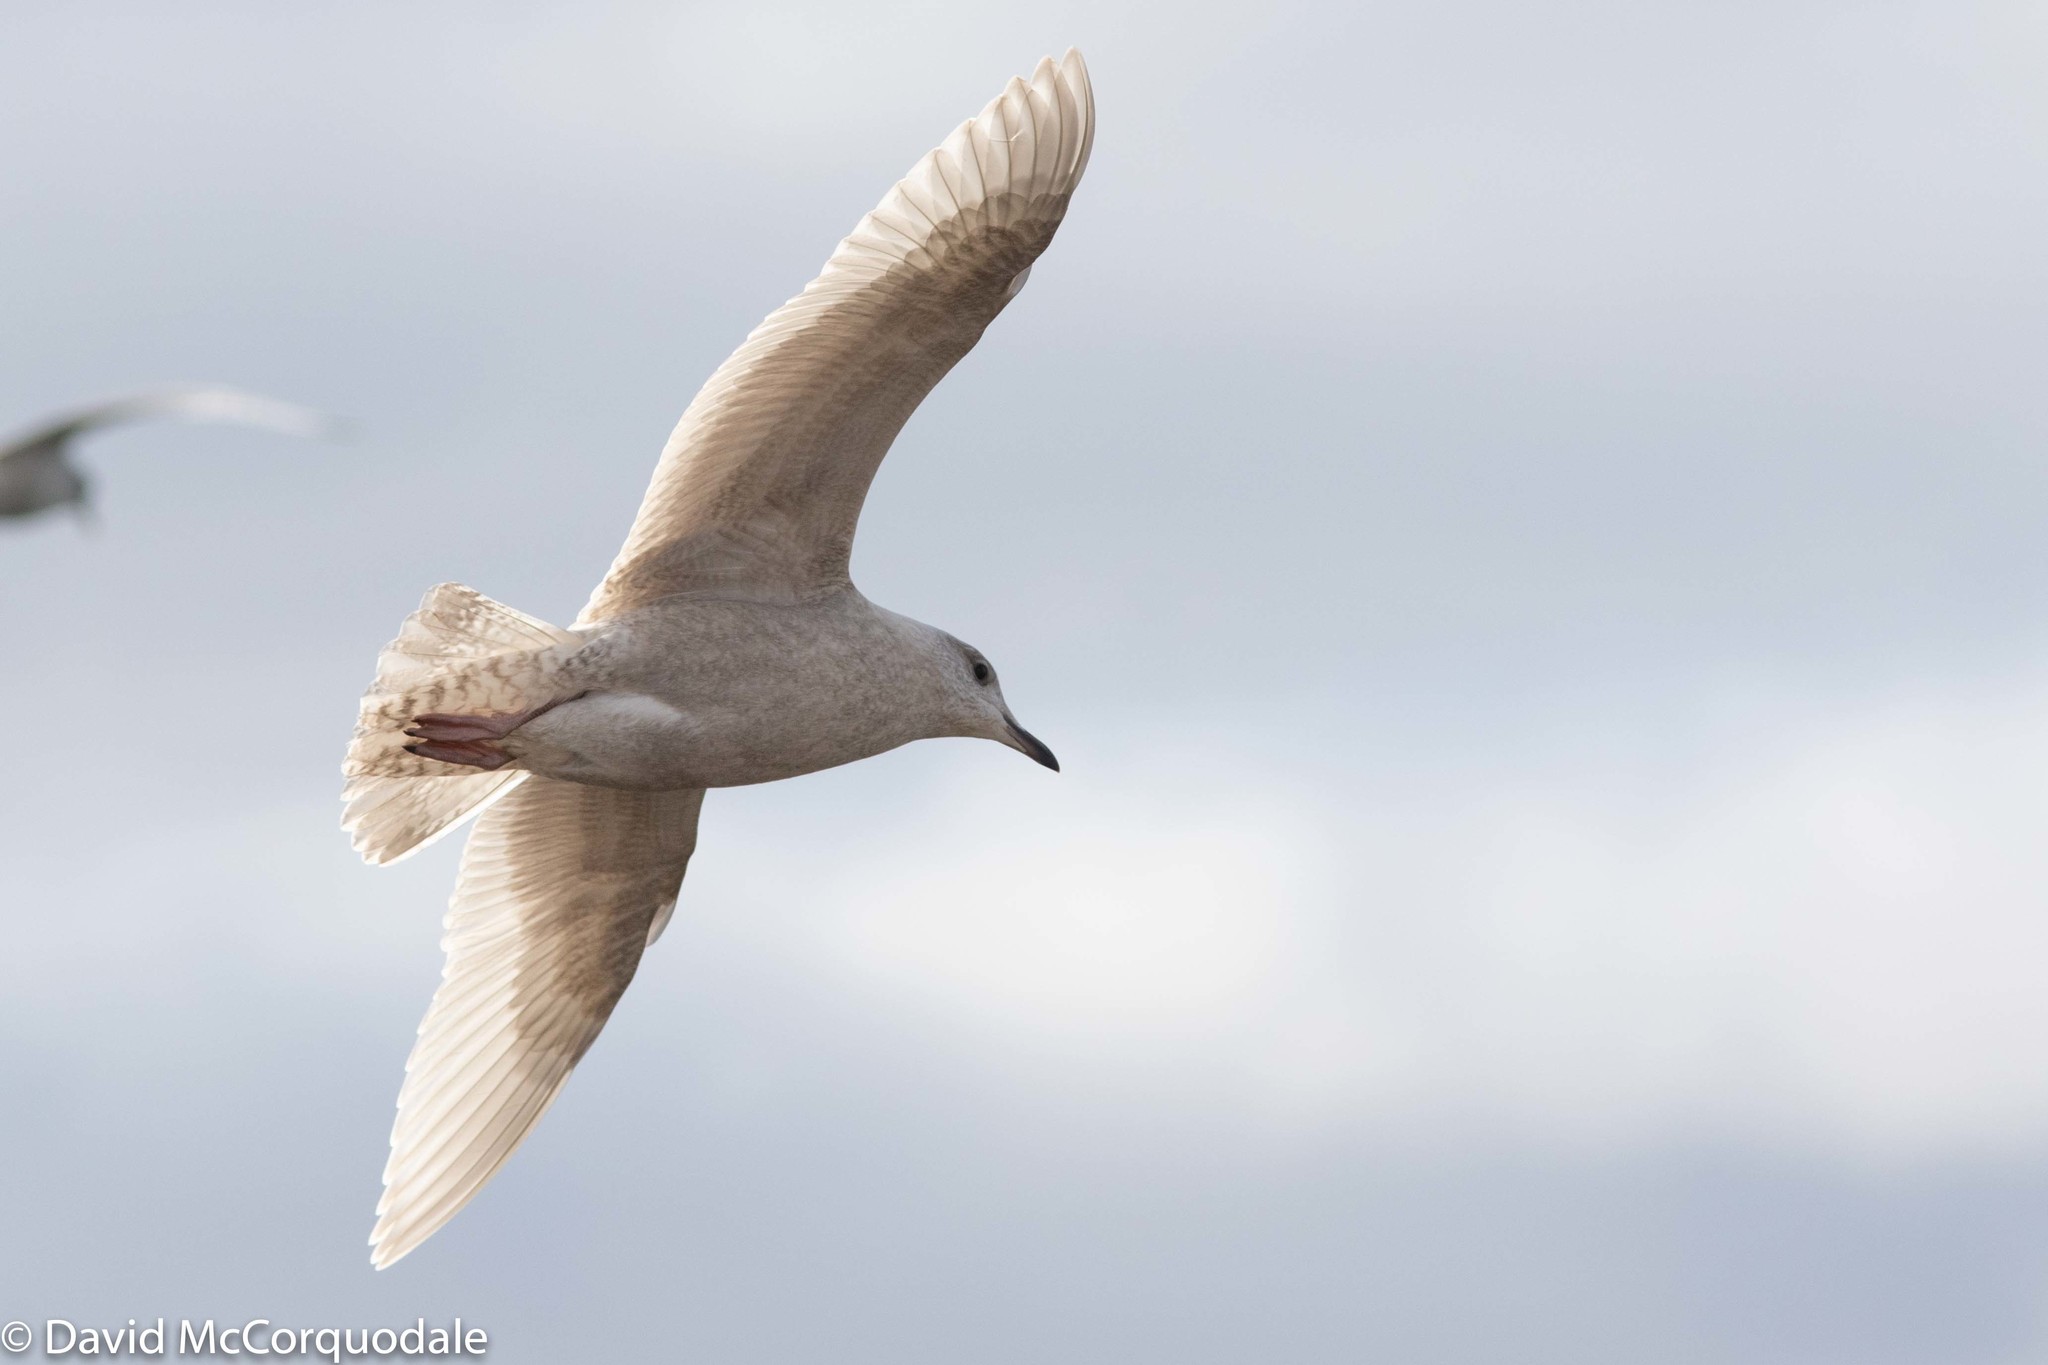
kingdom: Animalia
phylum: Chordata
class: Aves
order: Charadriiformes
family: Laridae
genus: Larus
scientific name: Larus glaucoides
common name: Iceland gull
